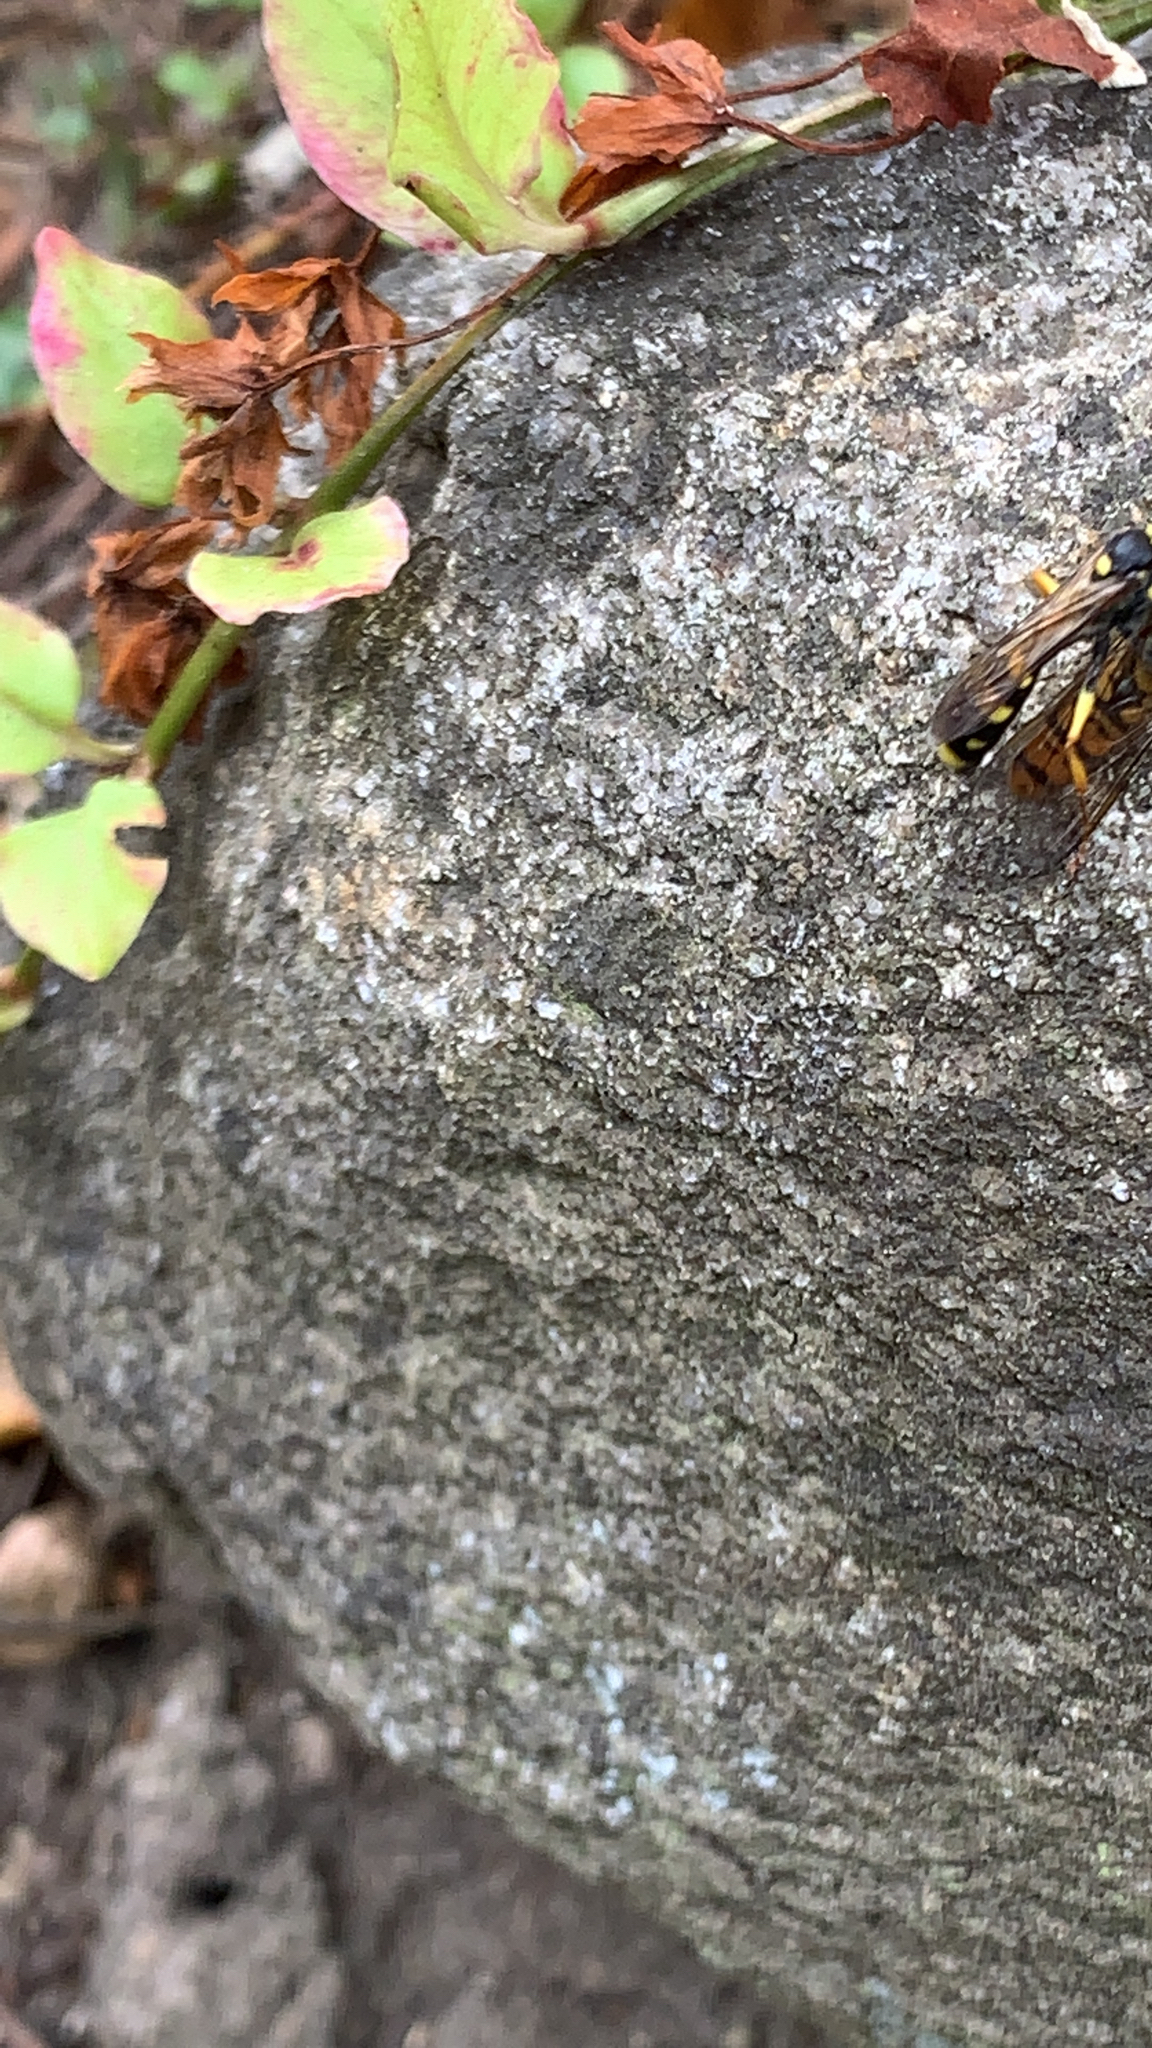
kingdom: Animalia
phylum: Arthropoda
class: Insecta
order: Hymenoptera
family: Crabronidae
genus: Mellinus
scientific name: Mellinus arvensis
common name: Field digger wasp
